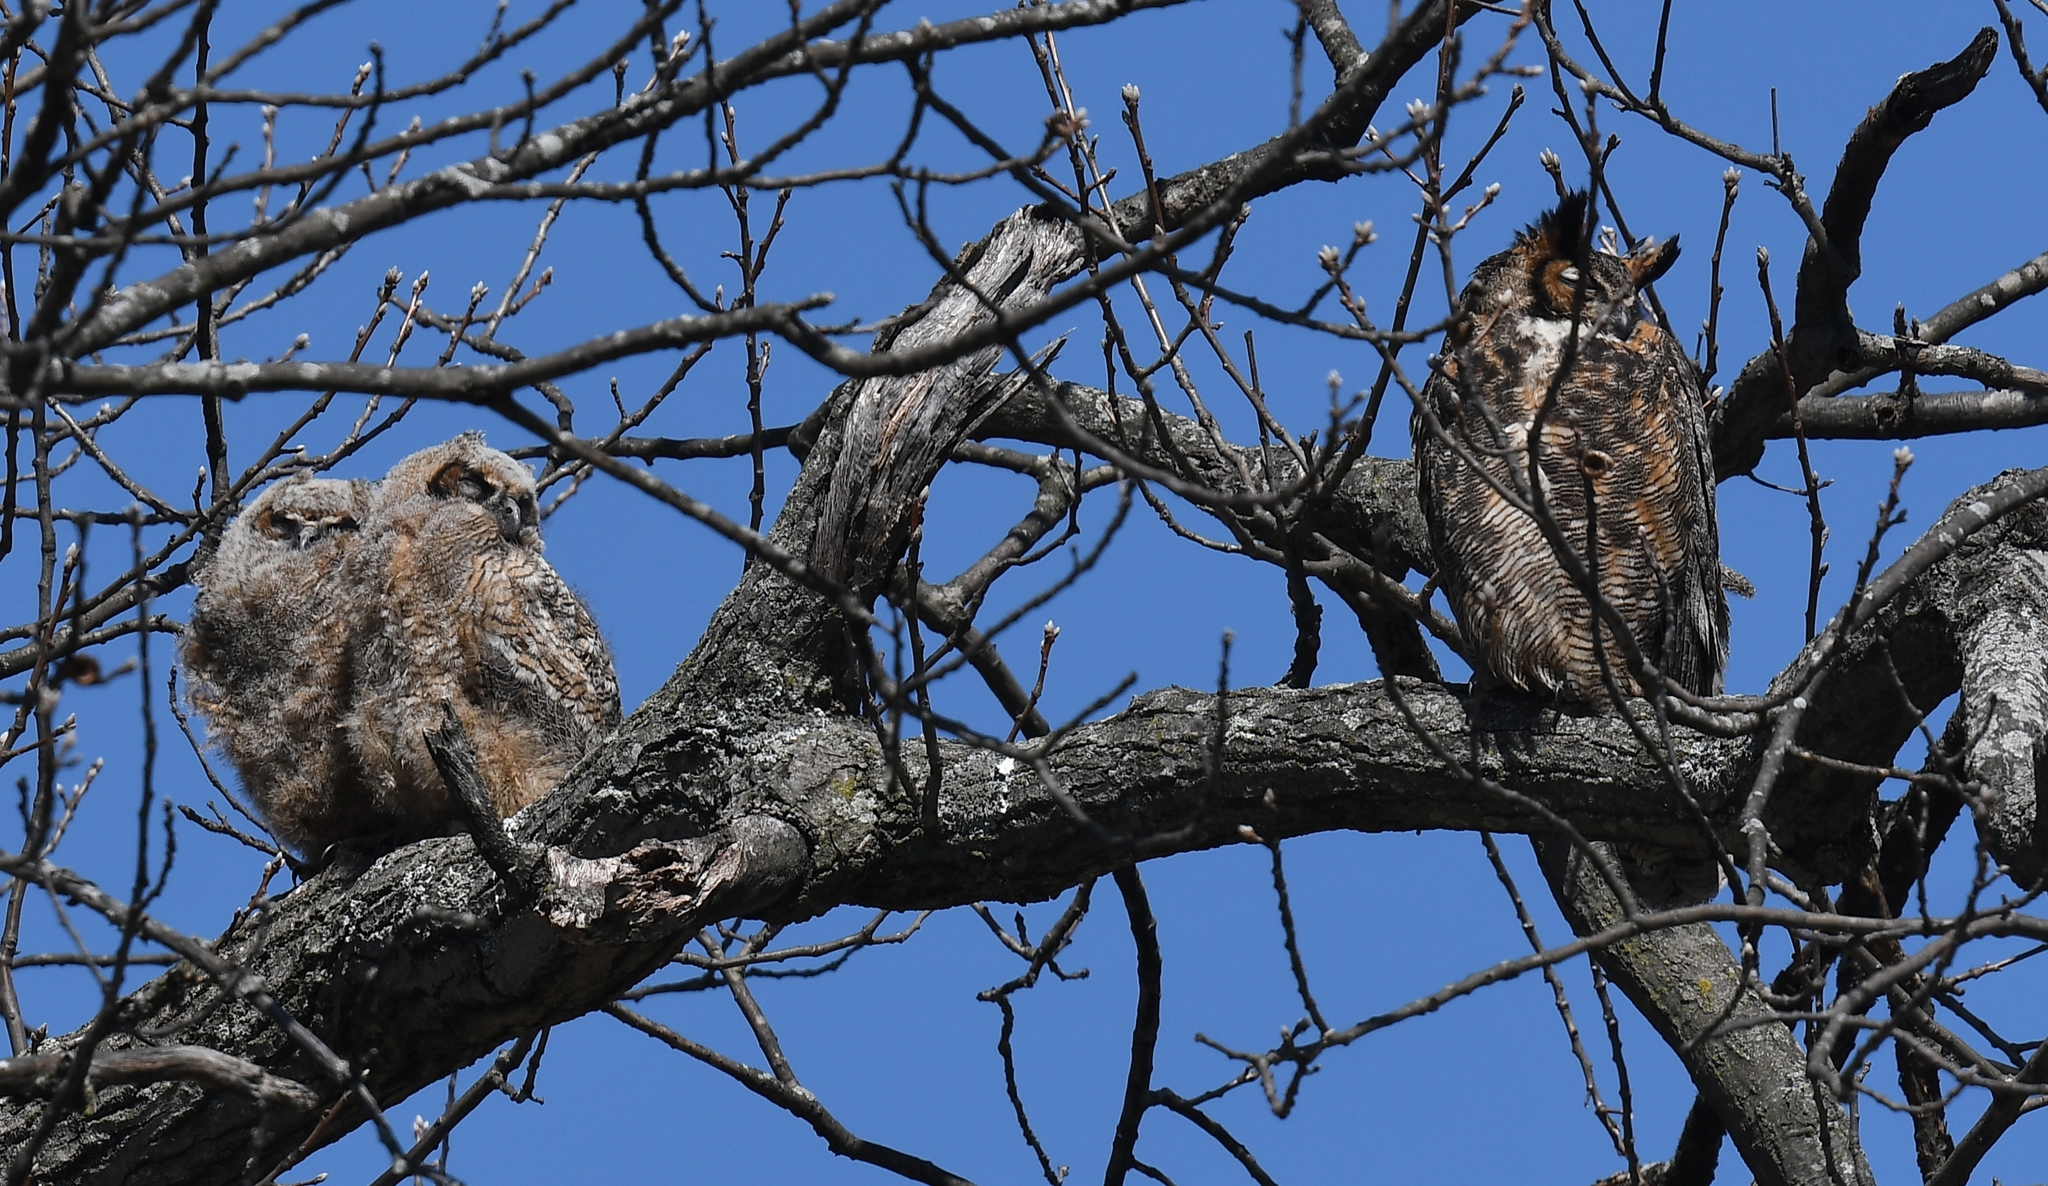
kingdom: Animalia
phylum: Chordata
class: Aves
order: Strigiformes
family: Strigidae
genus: Bubo
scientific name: Bubo virginianus
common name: Great horned owl
